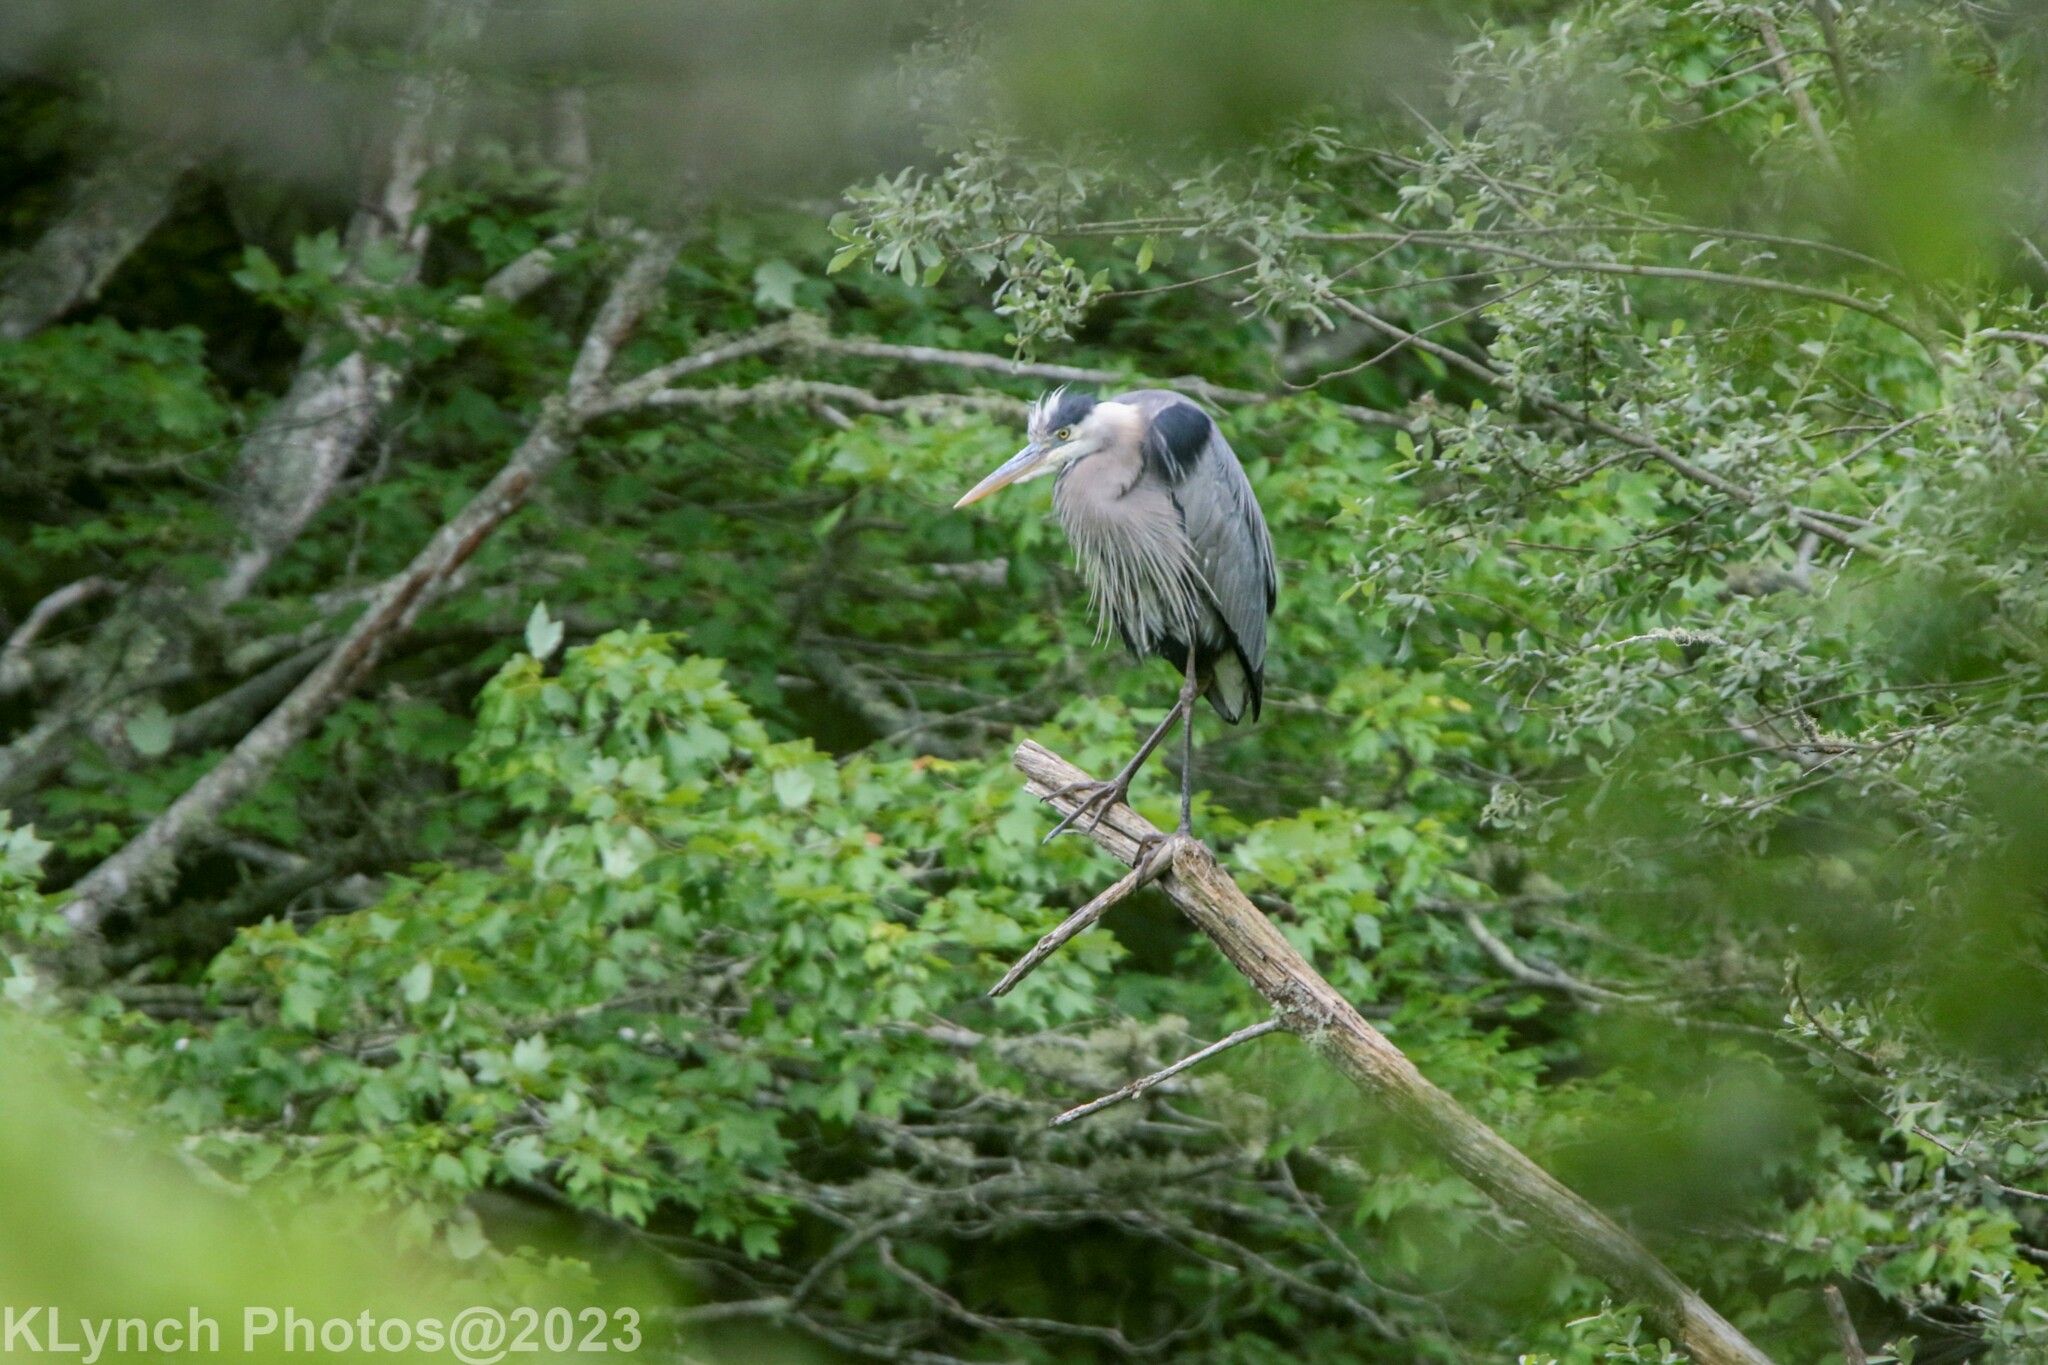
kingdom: Animalia
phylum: Chordata
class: Aves
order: Pelecaniformes
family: Ardeidae
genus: Ardea
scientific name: Ardea herodias
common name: Great blue heron
